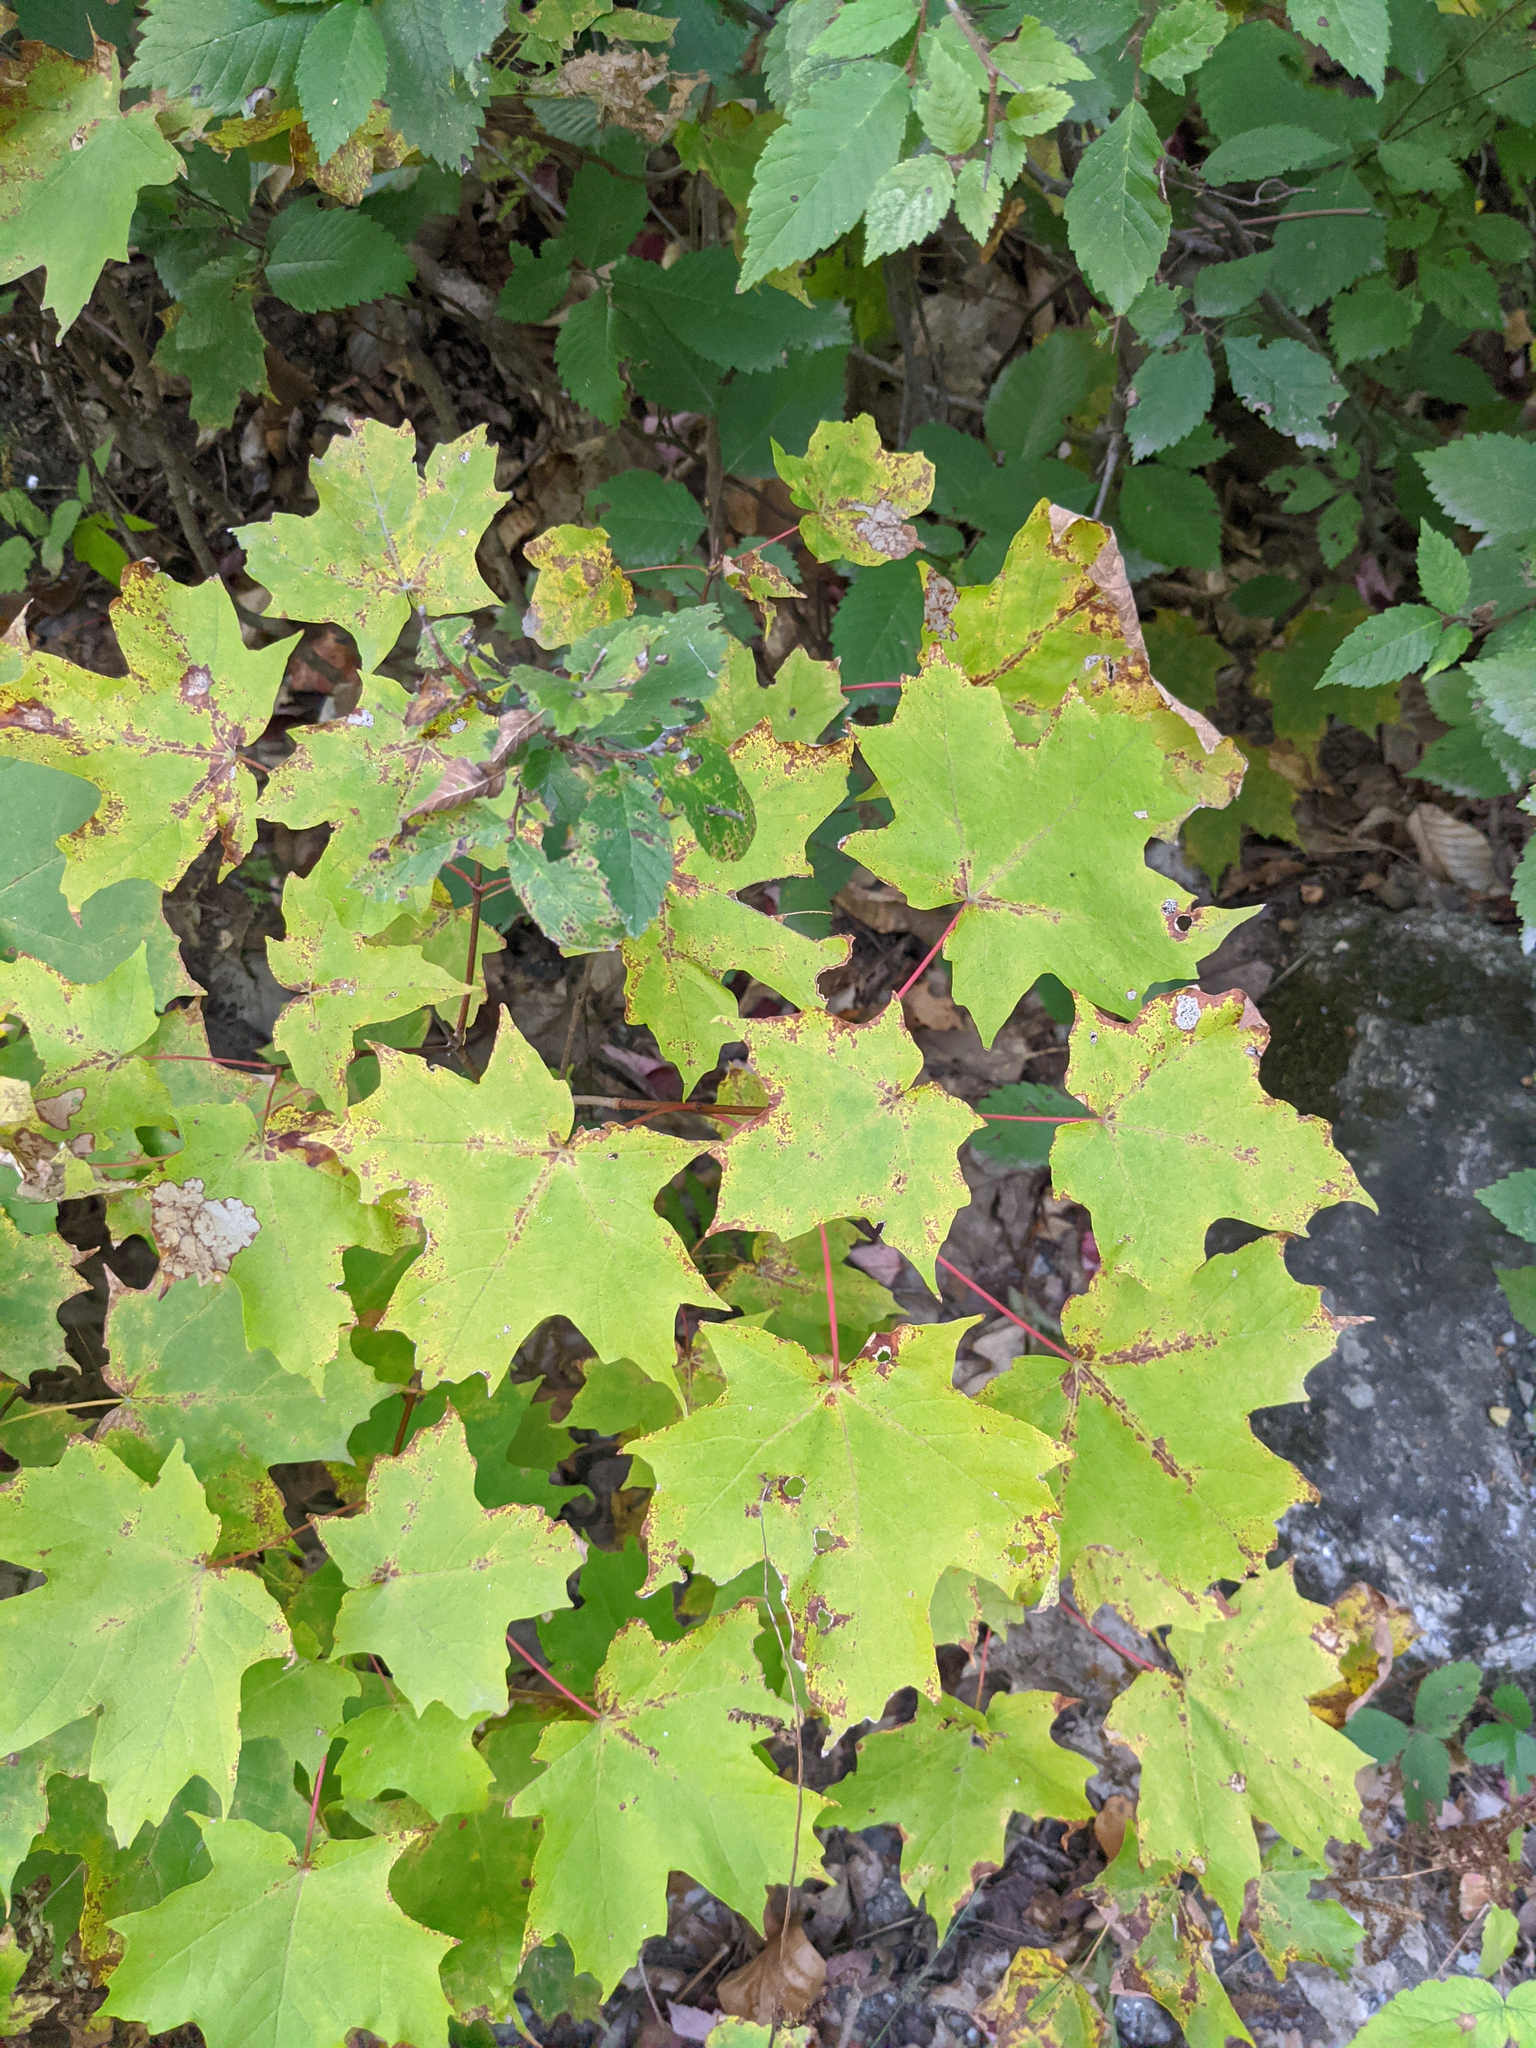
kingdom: Plantae
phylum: Tracheophyta
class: Magnoliopsida
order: Sapindales
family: Sapindaceae
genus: Acer
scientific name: Acer saccharum
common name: Sugar maple
